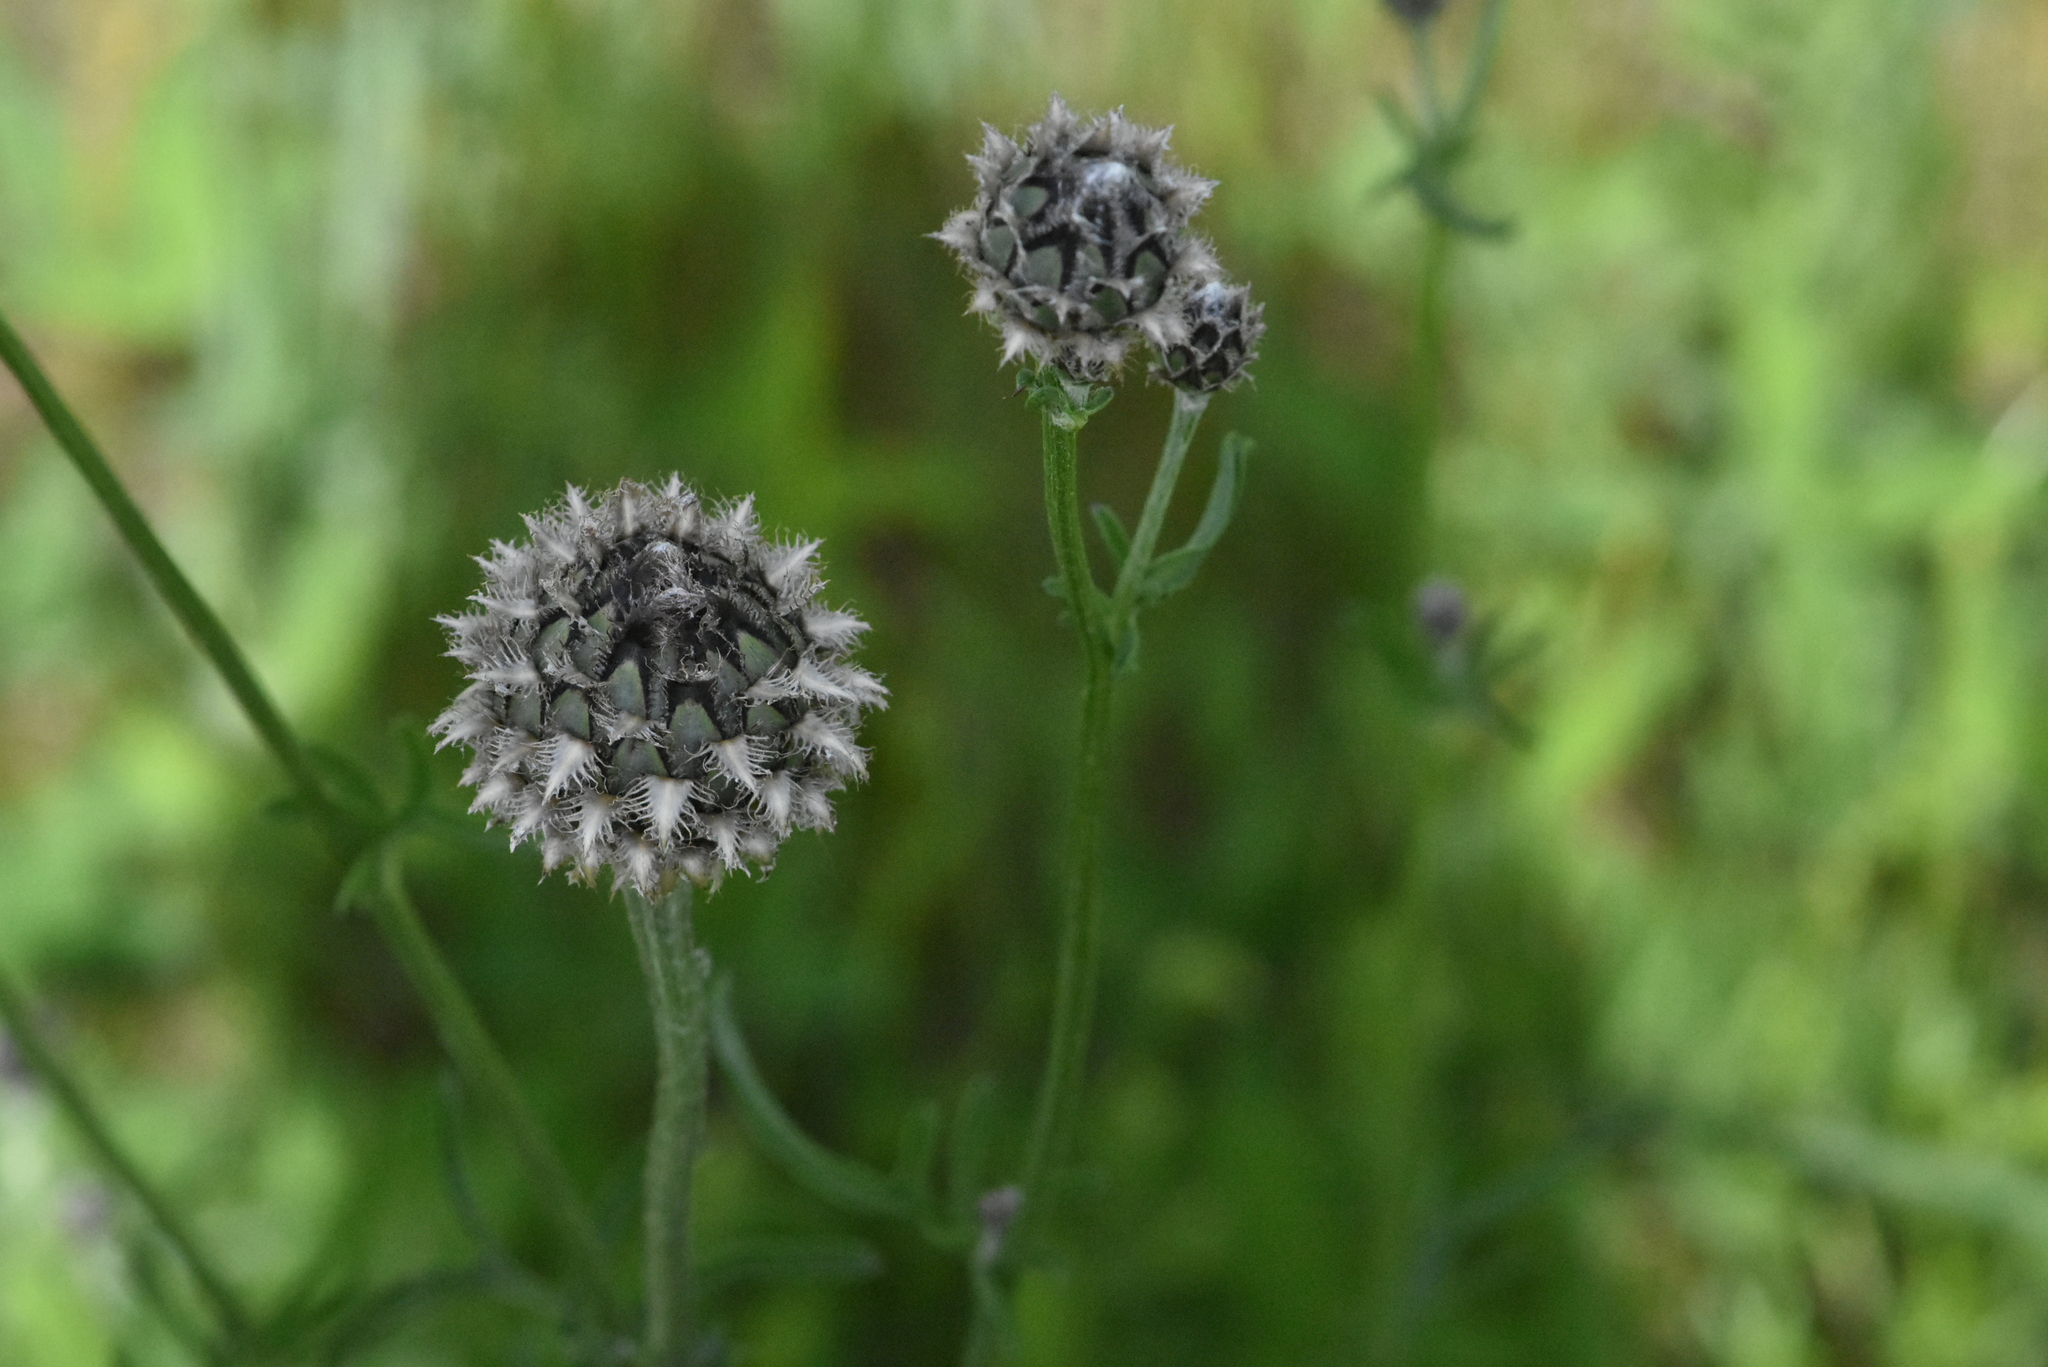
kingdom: Plantae
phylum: Tracheophyta
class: Magnoliopsida
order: Asterales
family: Asteraceae
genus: Centaurea
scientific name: Centaurea scabiosa
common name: Greater knapweed
